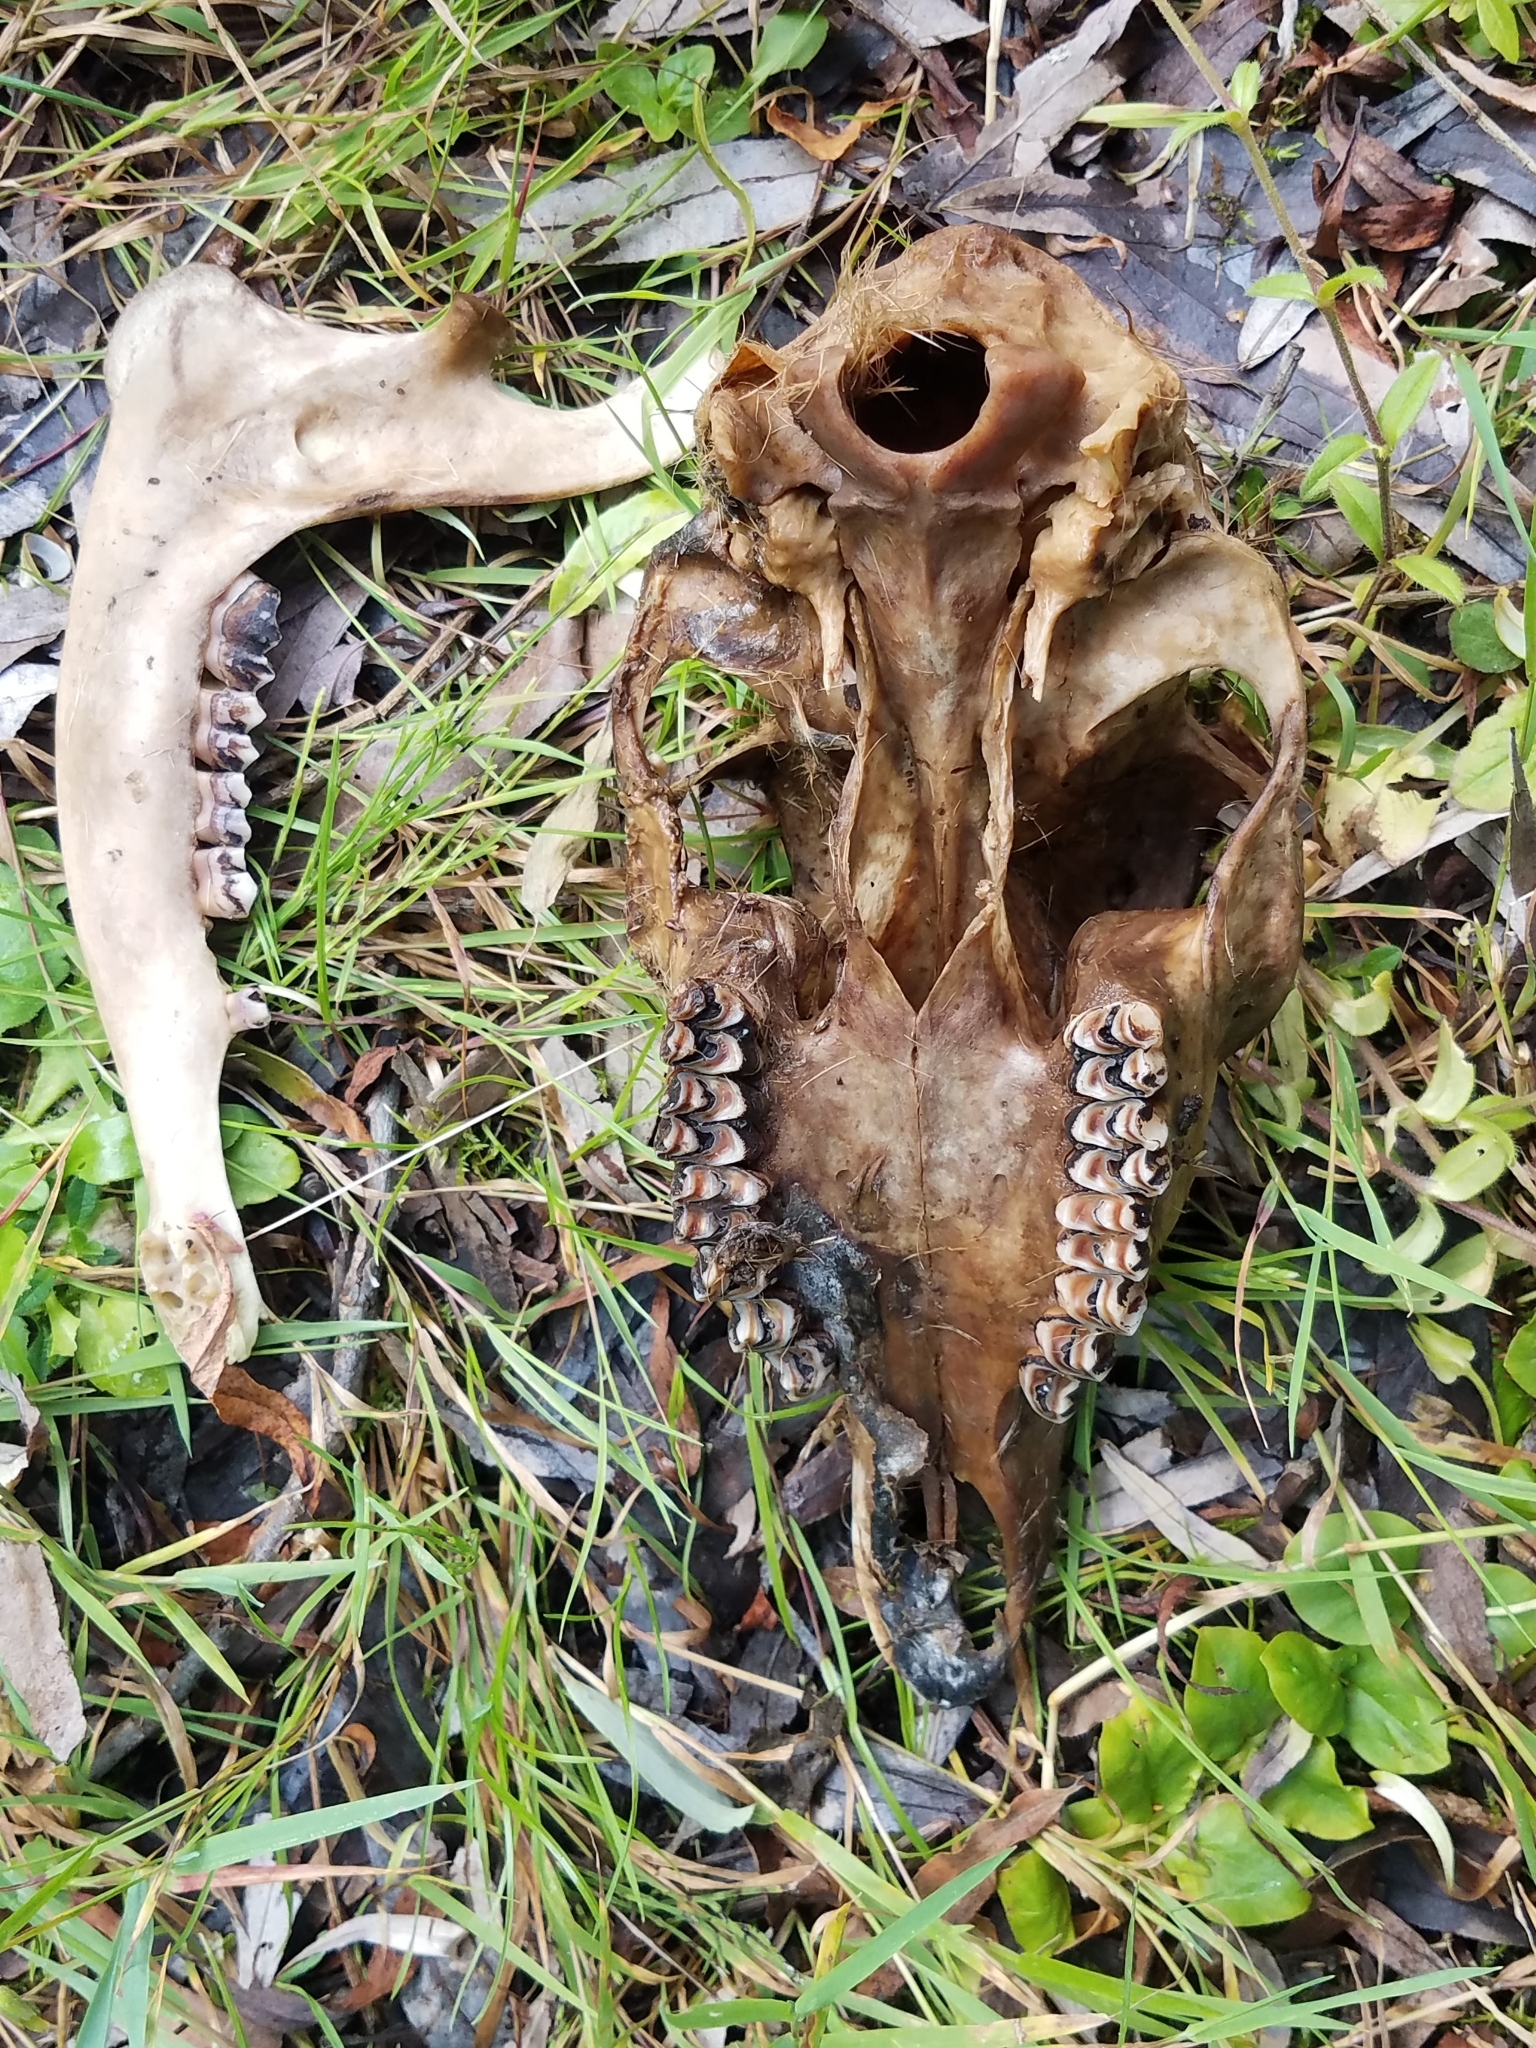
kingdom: Animalia
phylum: Chordata
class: Mammalia
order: Artiodactyla
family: Cervidae
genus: Capreolus
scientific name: Capreolus capreolus
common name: Western roe deer
